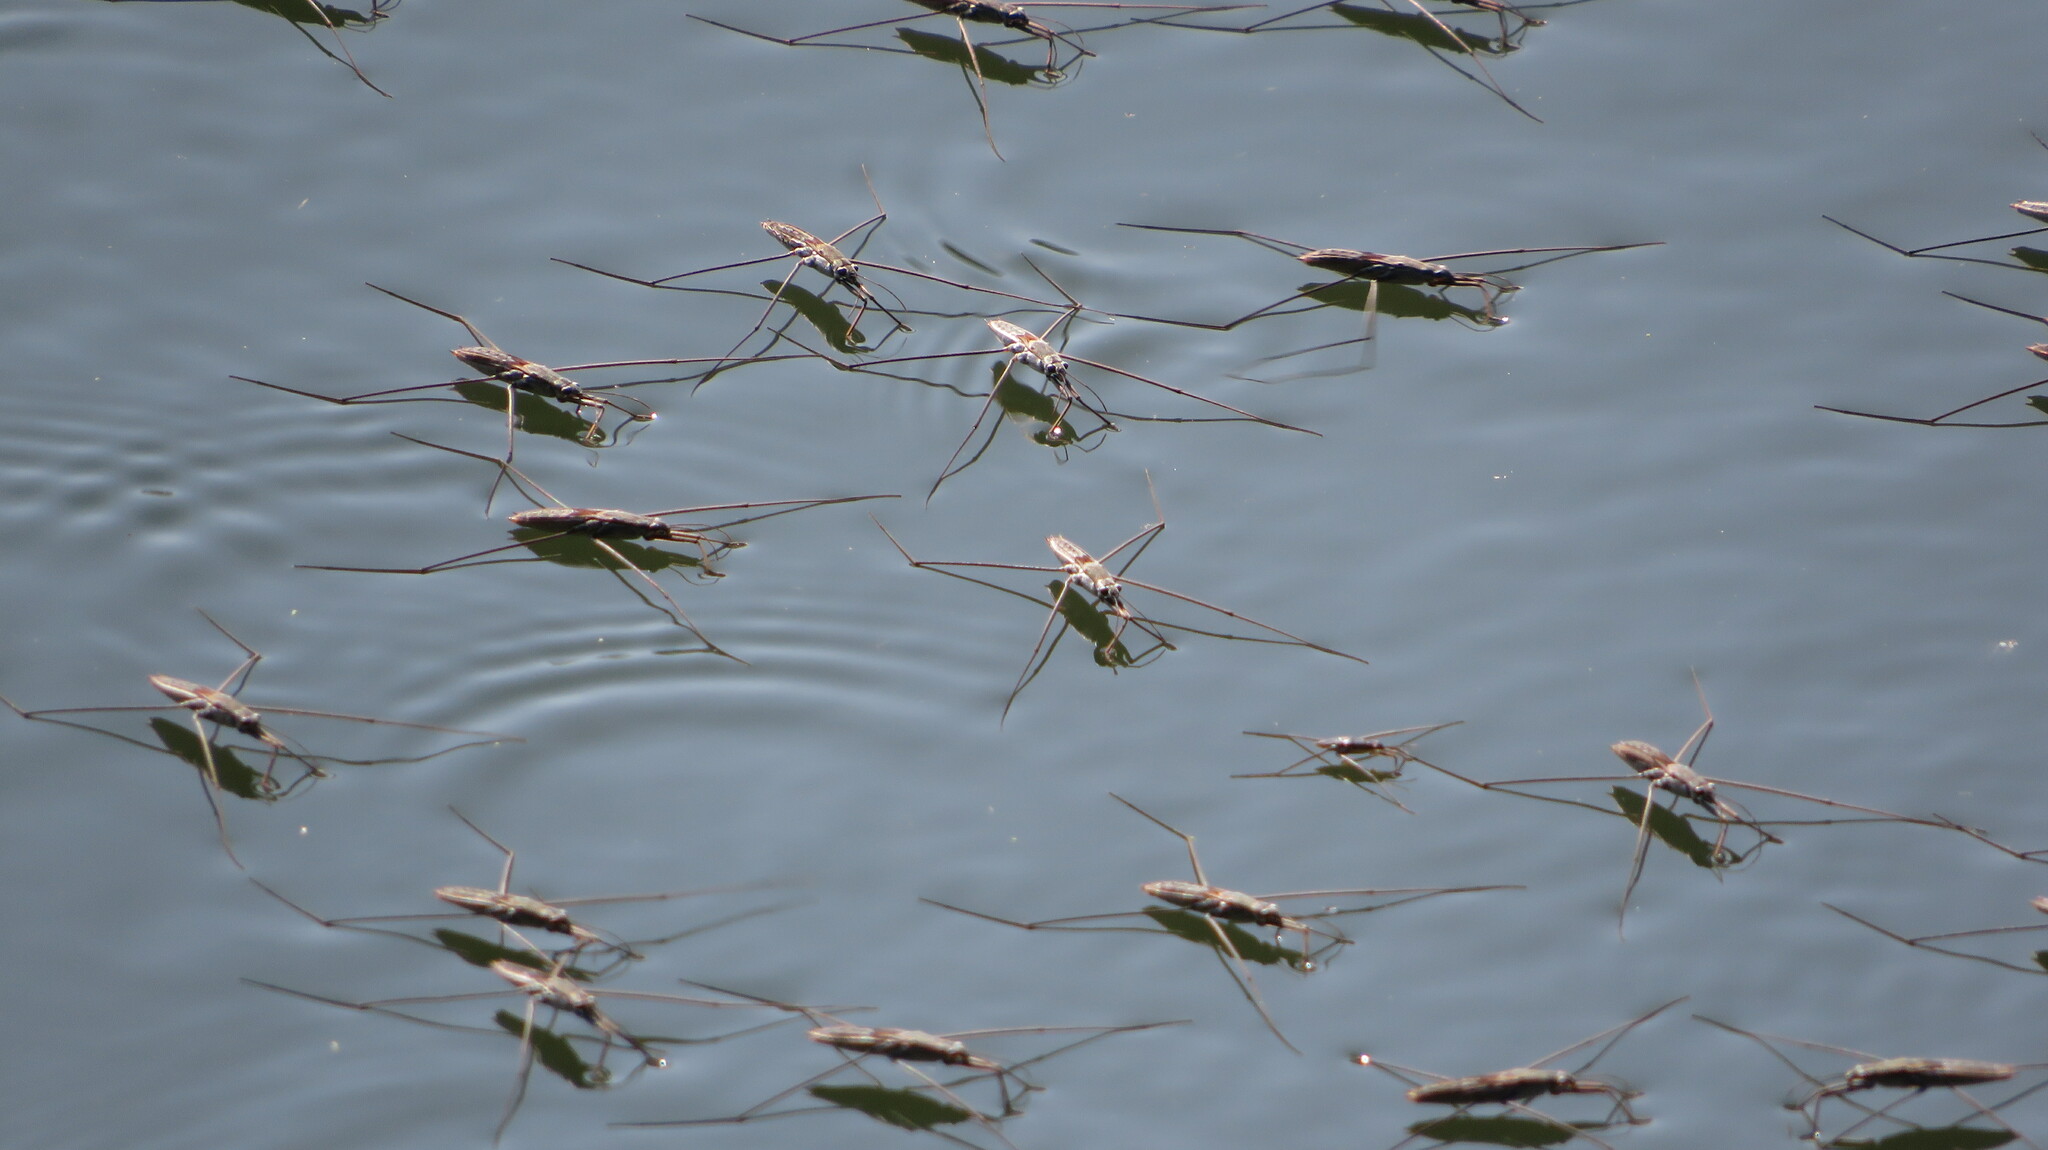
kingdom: Animalia
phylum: Arthropoda
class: Insecta
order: Hemiptera
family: Gerridae
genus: Aquarius
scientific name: Aquarius adelaidis
